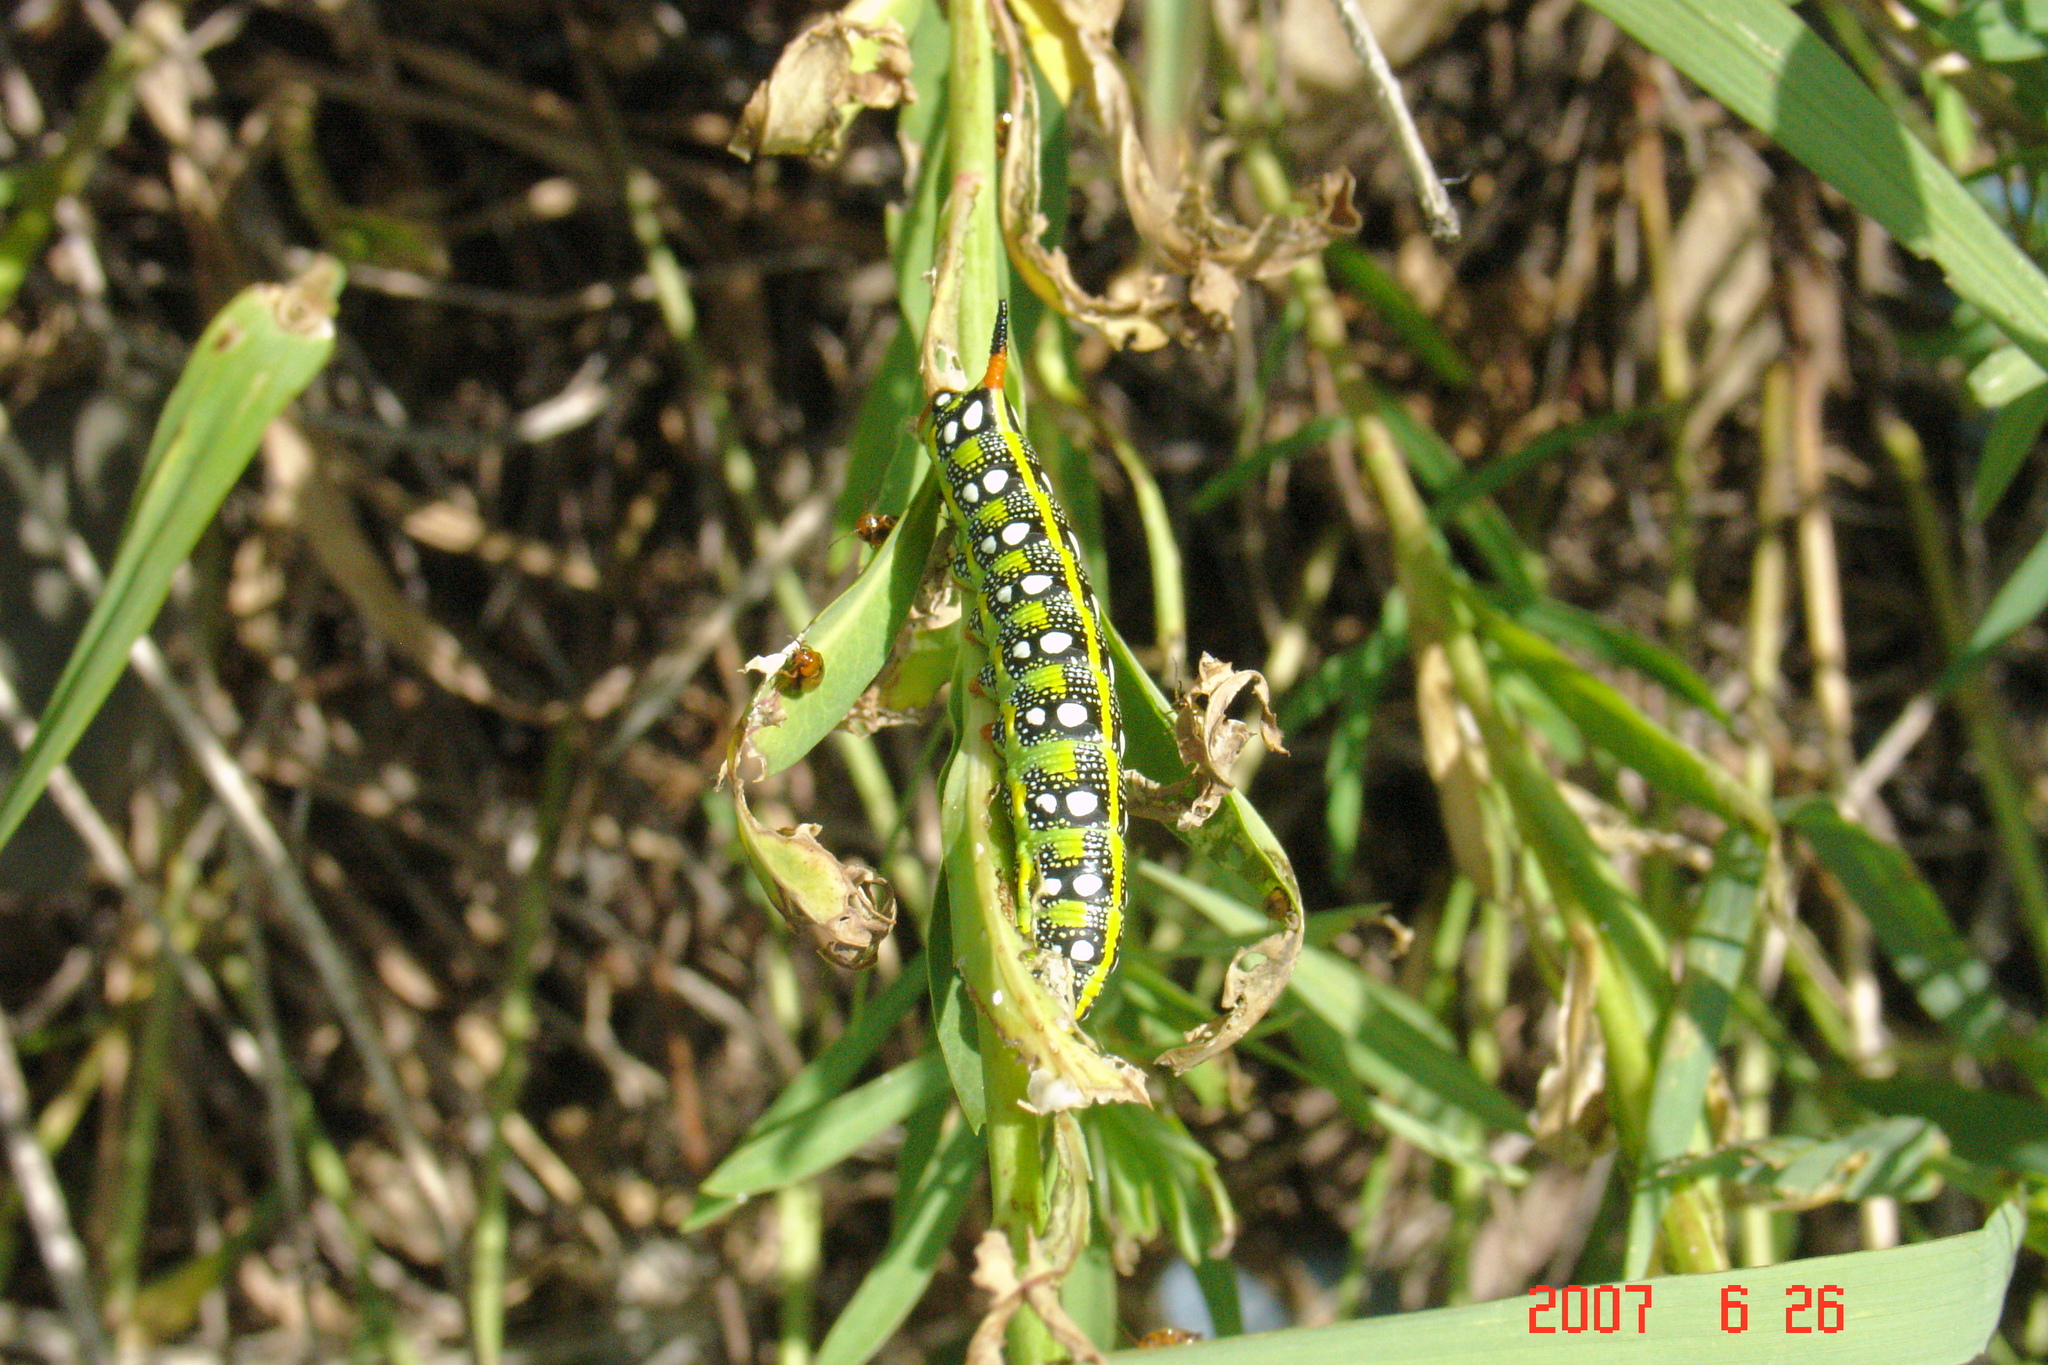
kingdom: Animalia
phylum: Arthropoda
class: Insecta
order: Lepidoptera
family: Sphingidae
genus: Hyles
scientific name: Hyles euphorbiae
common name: Spurge hawk-moth
